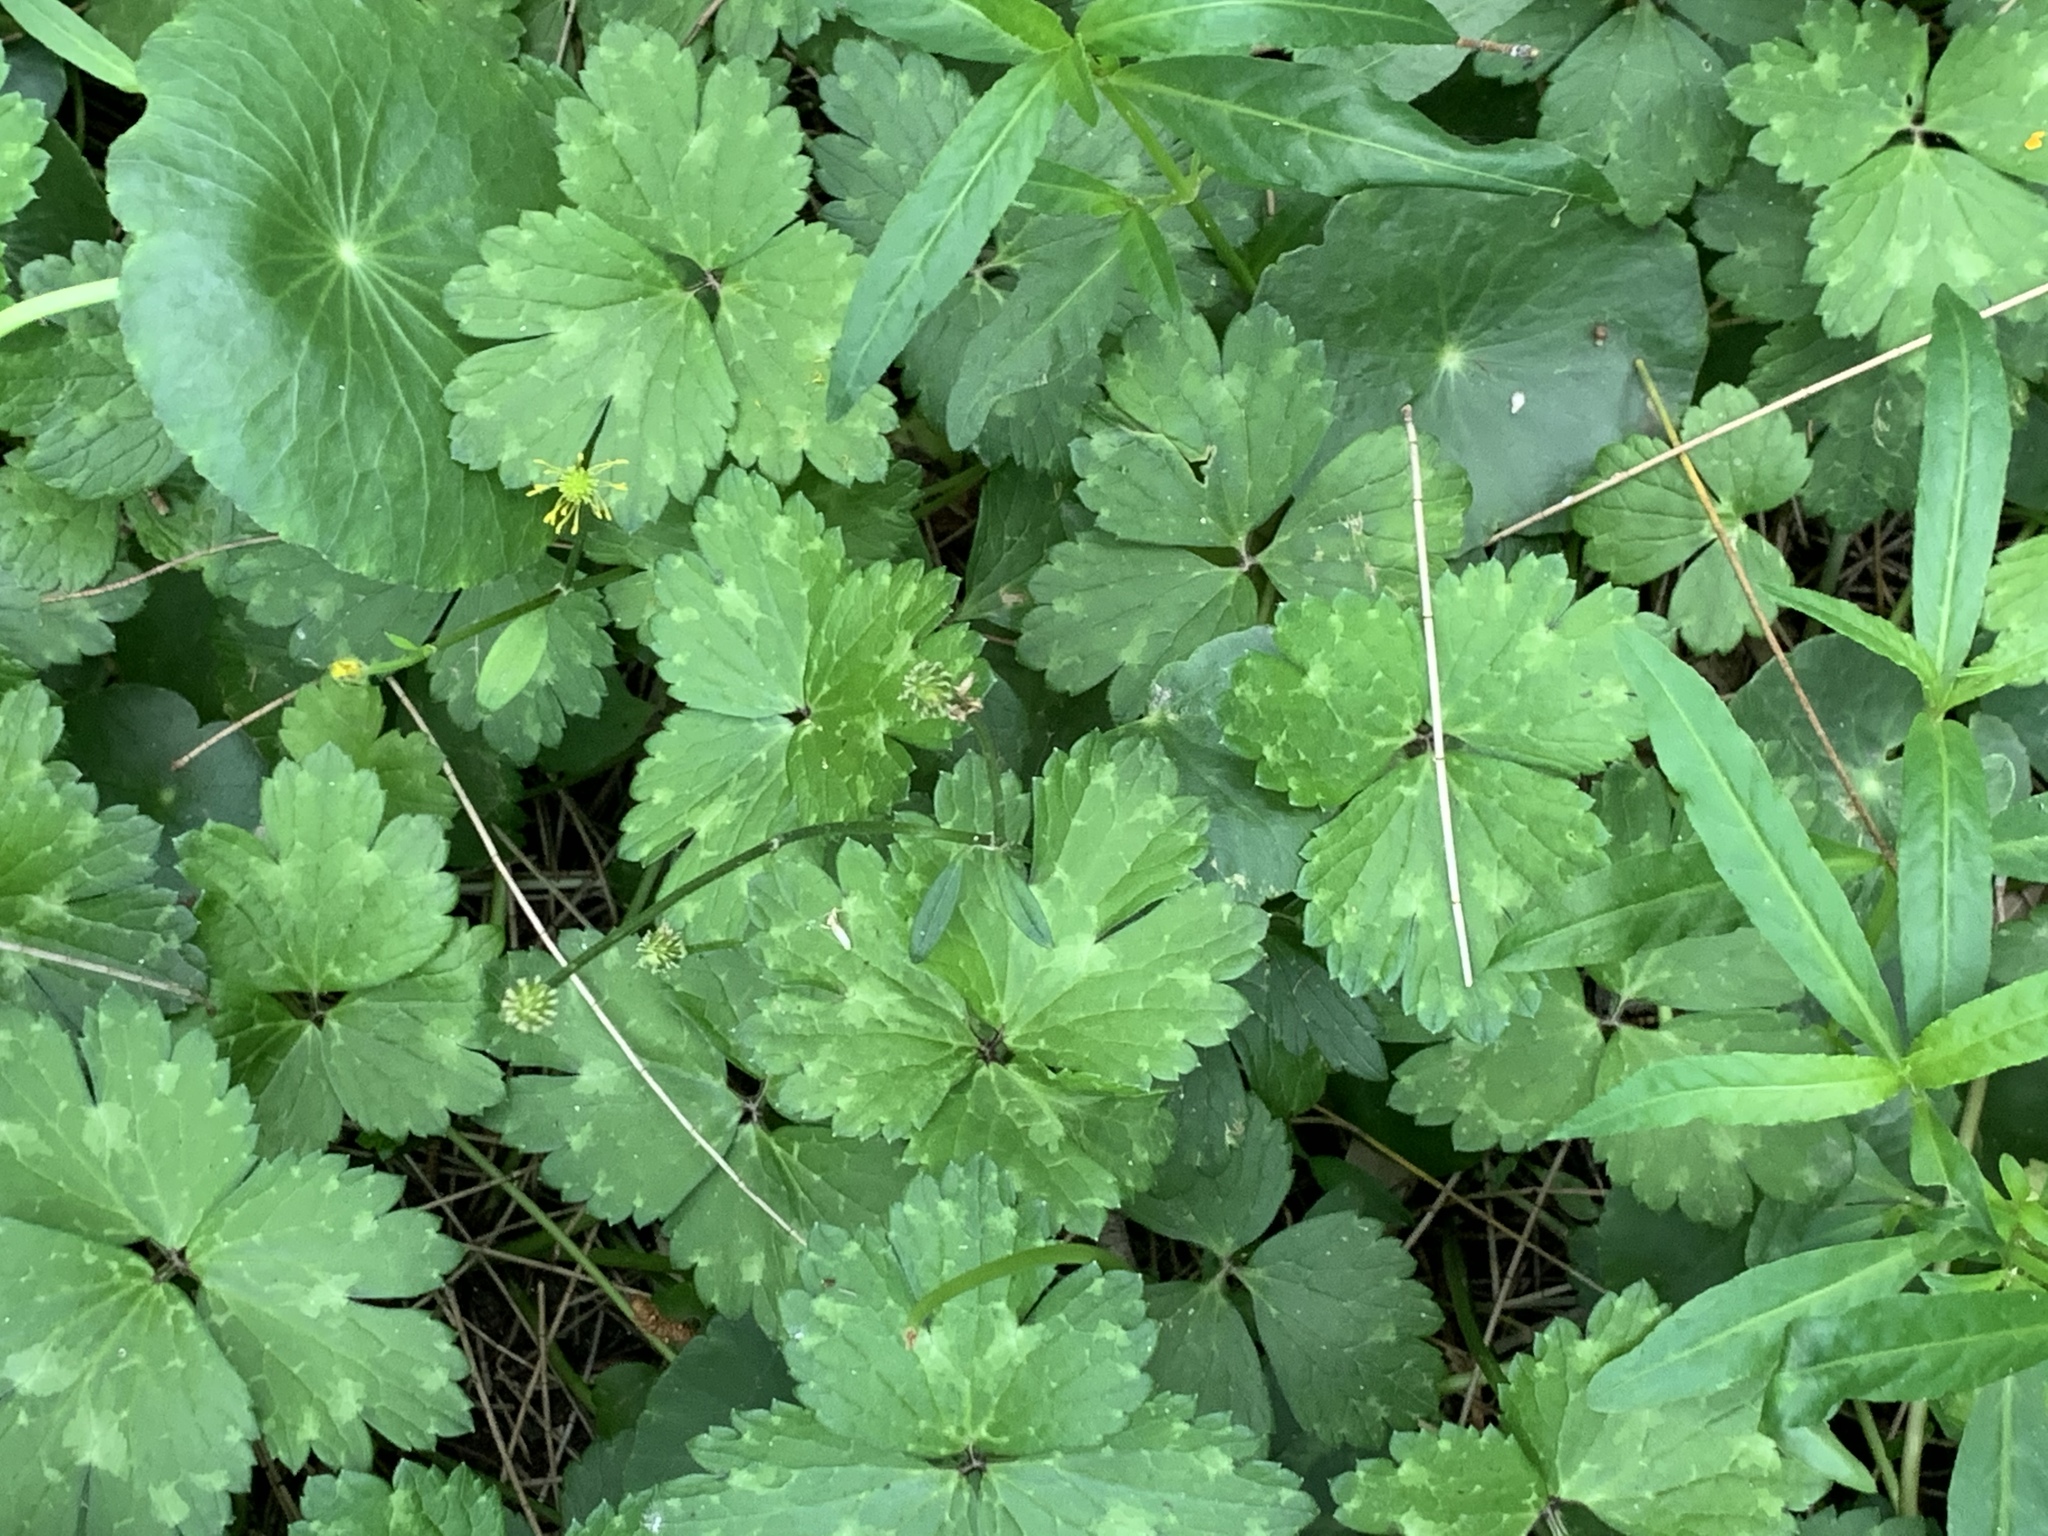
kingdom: Plantae
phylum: Tracheophyta
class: Magnoliopsida
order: Ranunculales
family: Ranunculaceae
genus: Ranunculus
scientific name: Ranunculus repens
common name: Creeping buttercup
